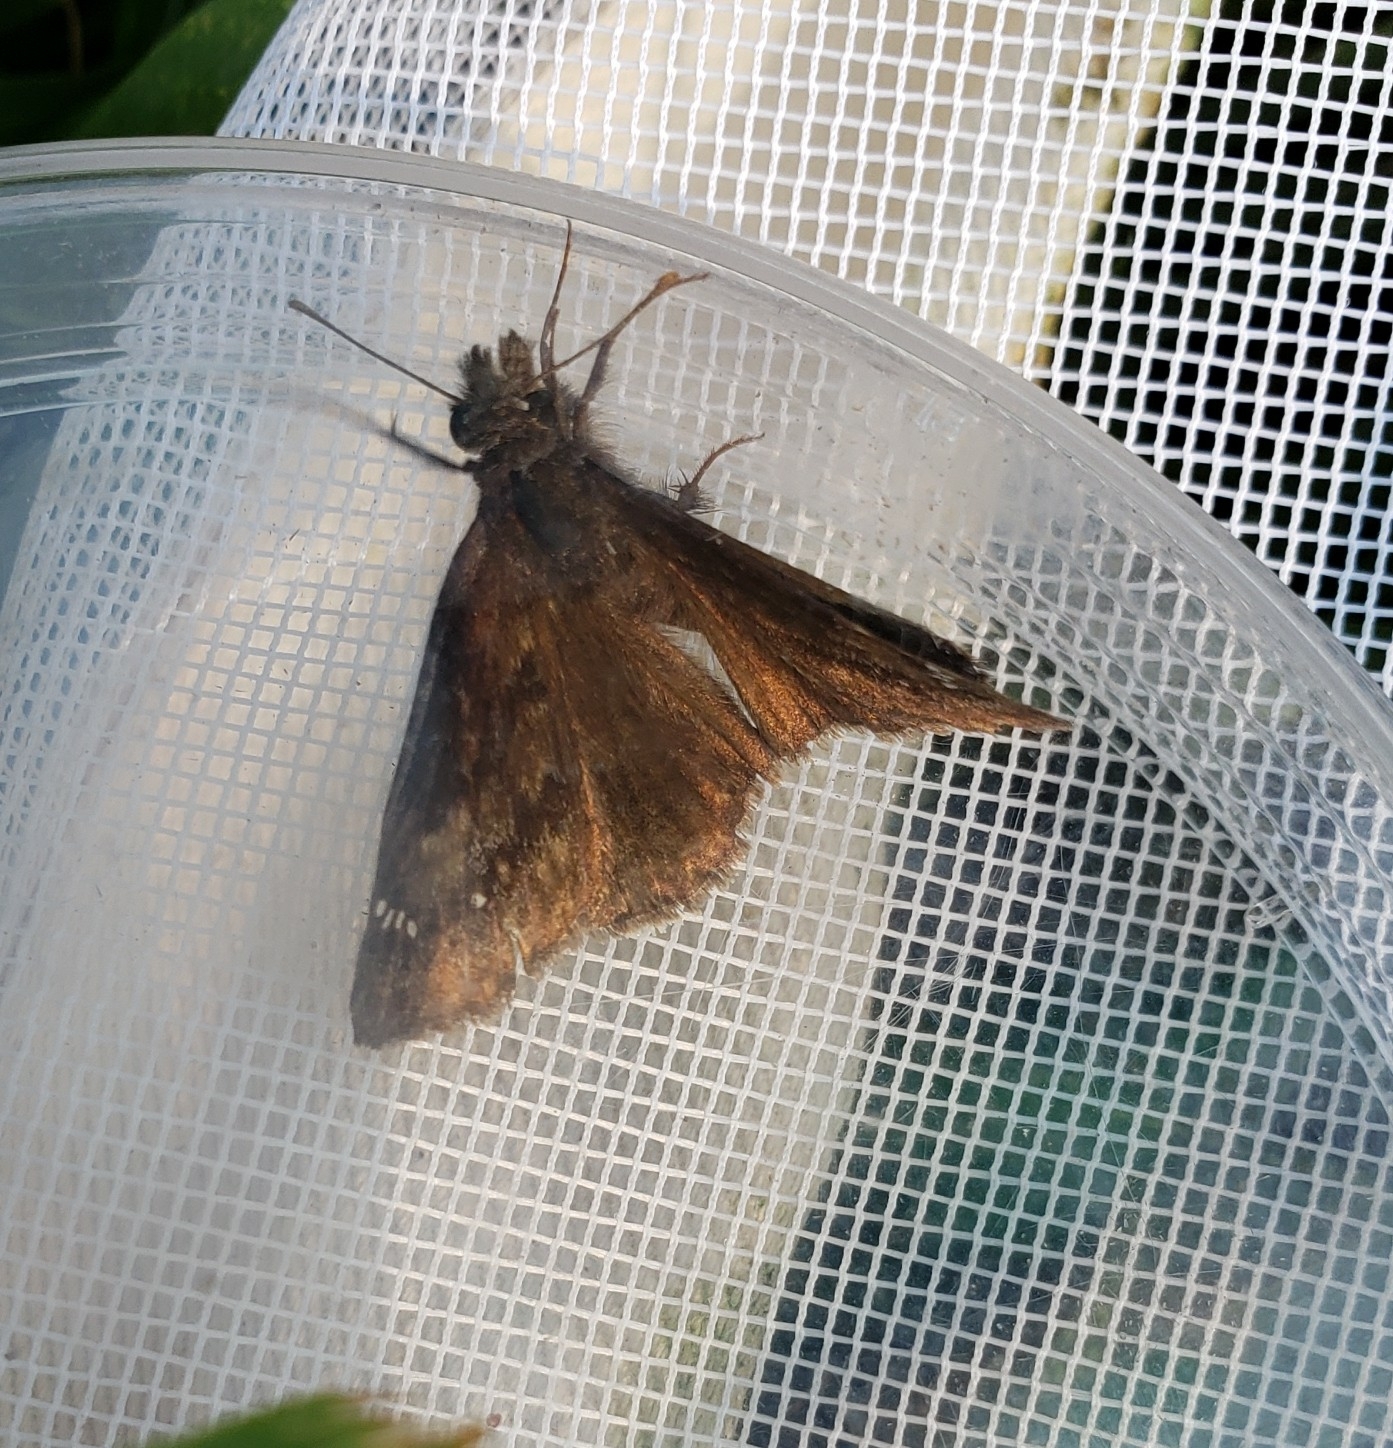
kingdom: Animalia
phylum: Arthropoda
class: Insecta
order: Lepidoptera
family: Hesperiidae
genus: Erynnis
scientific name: Erynnis baptisiae
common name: Wild indigo duskywing
